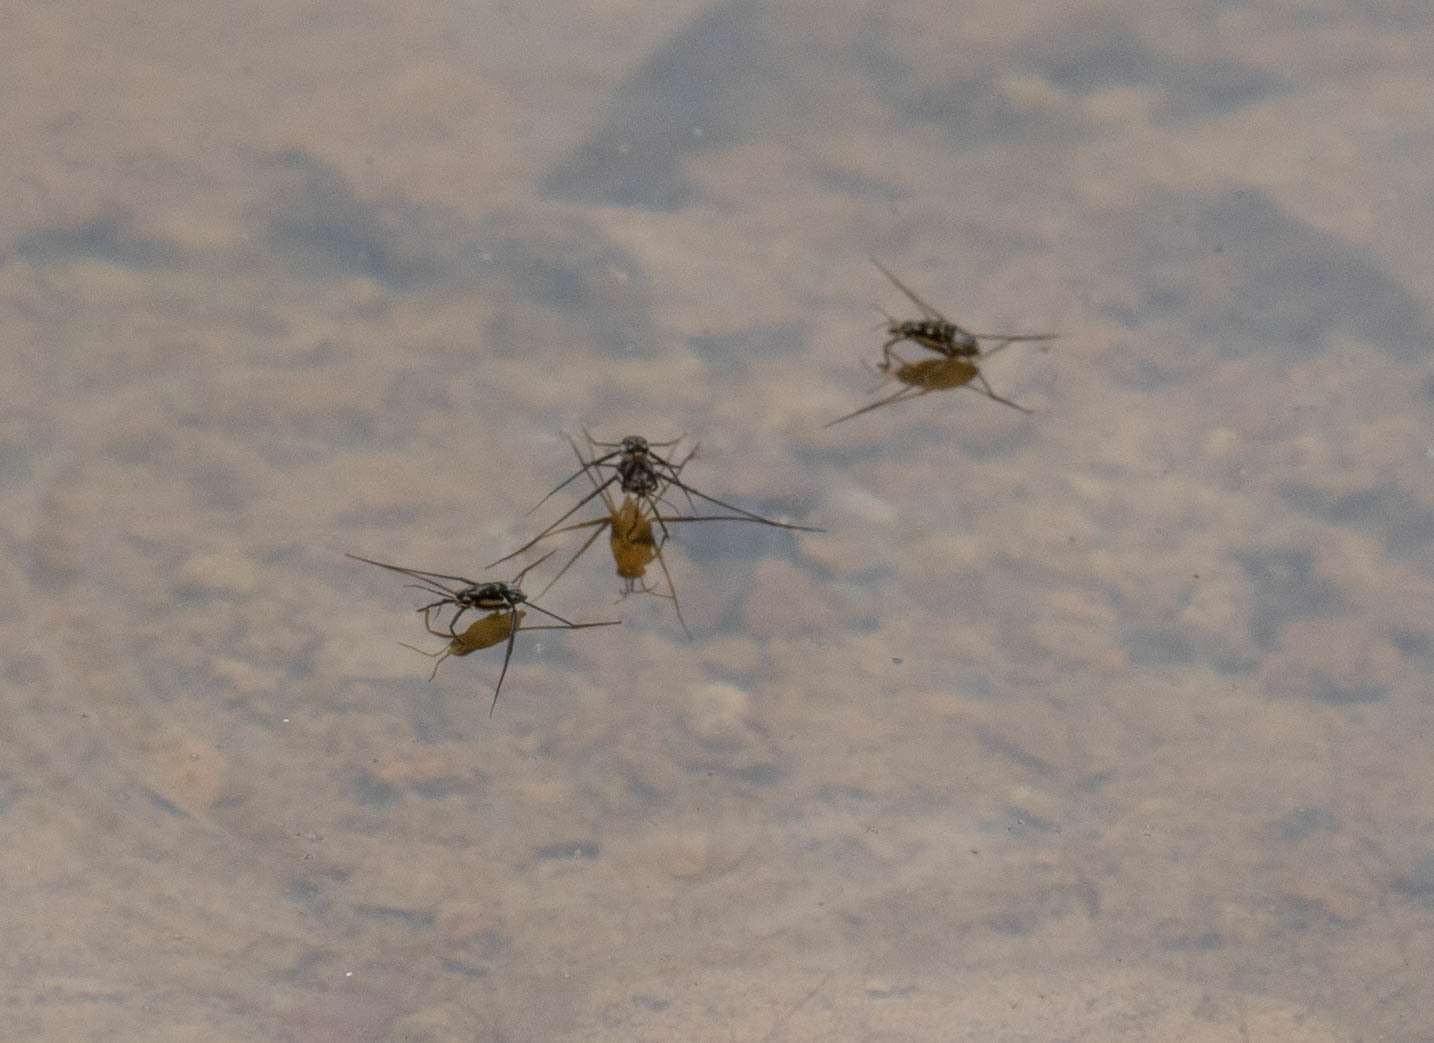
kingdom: Animalia
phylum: Arthropoda
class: Insecta
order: Hemiptera
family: Gerridae
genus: Trepobates
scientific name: Trepobates subnitidus
